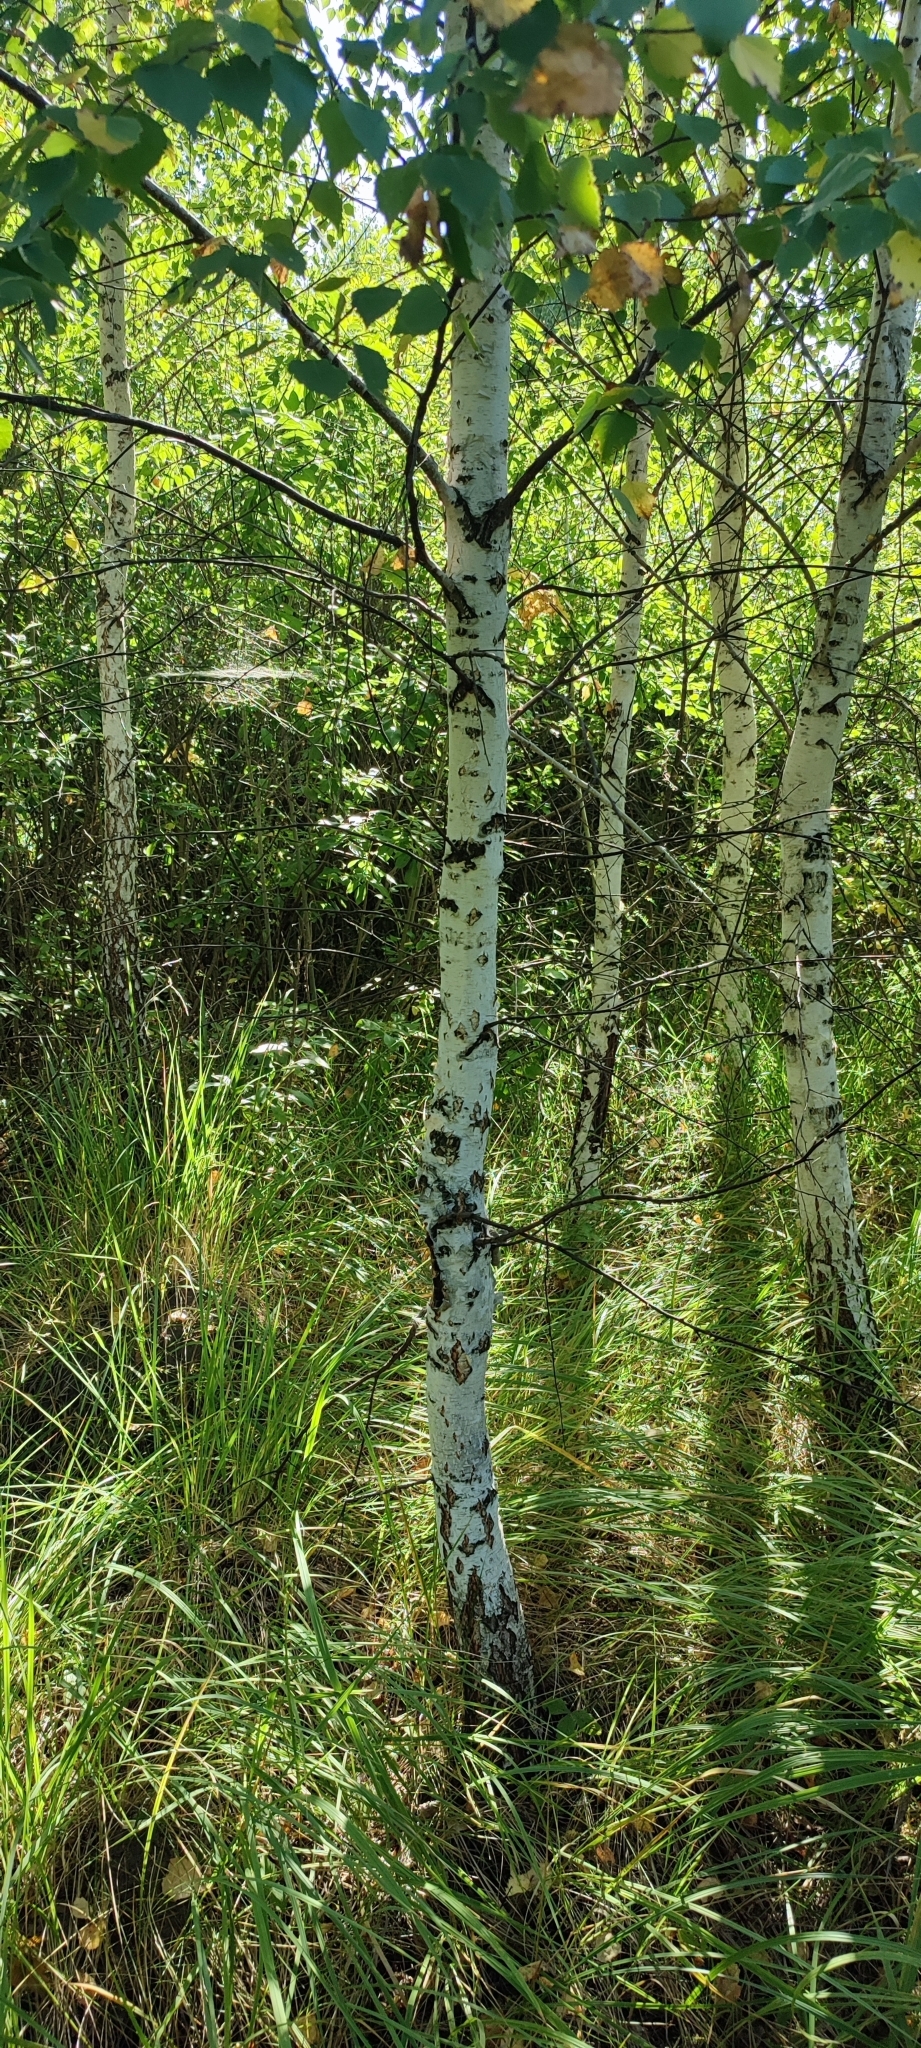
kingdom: Plantae
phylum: Tracheophyta
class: Magnoliopsida
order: Fagales
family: Betulaceae
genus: Betula
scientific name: Betula pendula
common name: Silver birch
